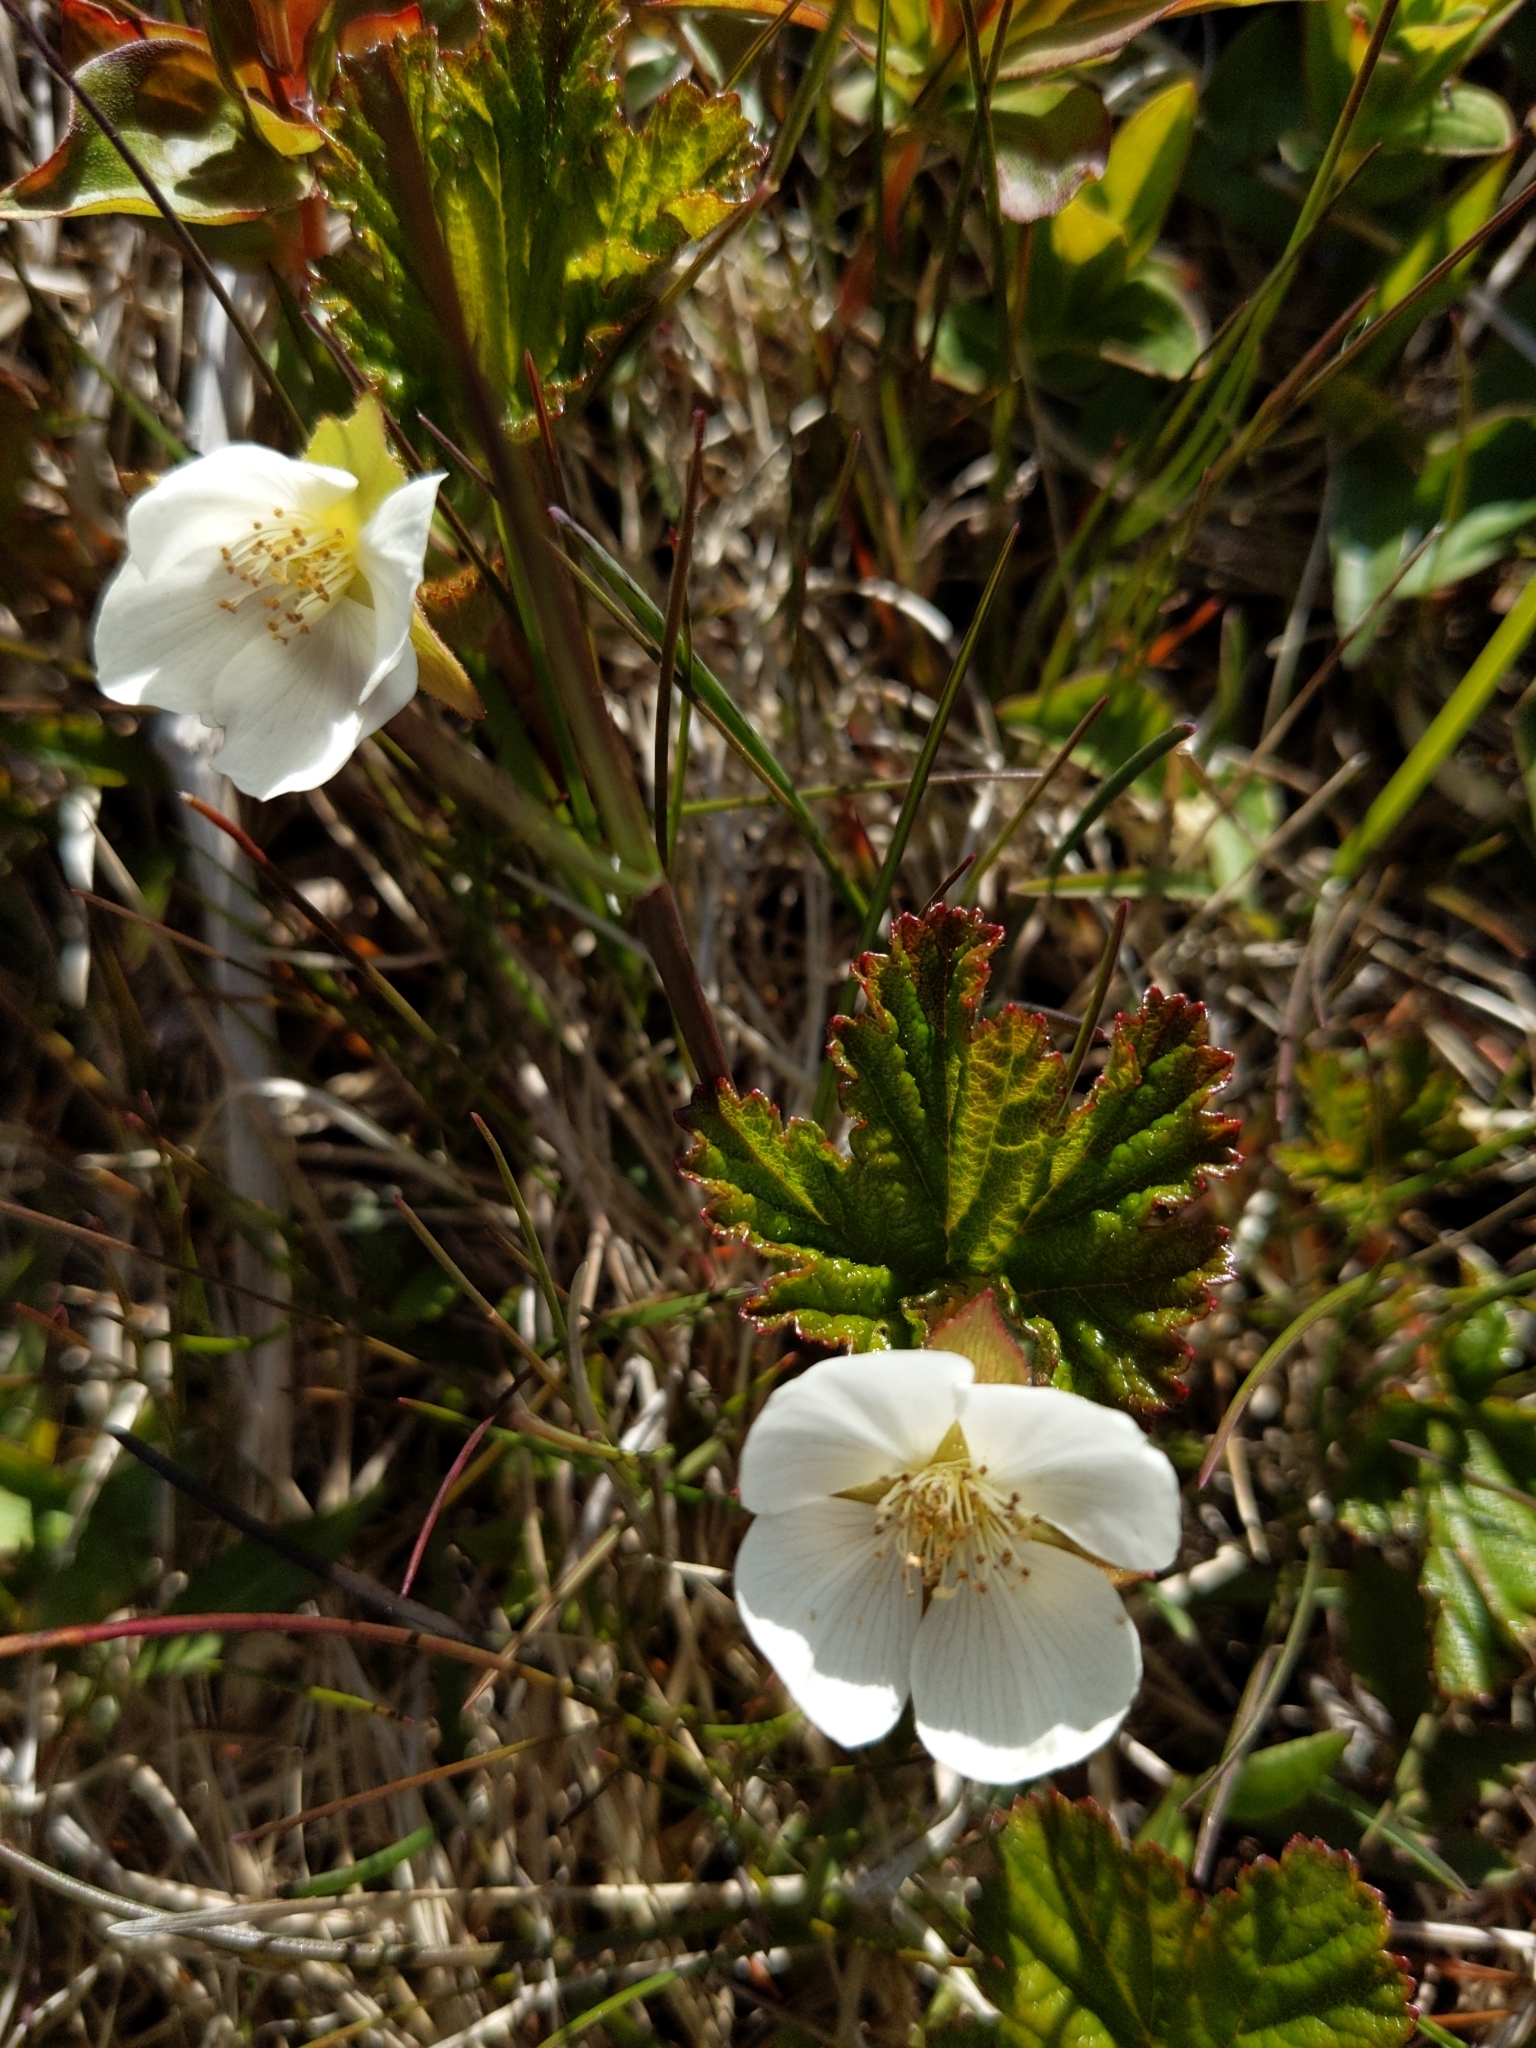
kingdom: Plantae
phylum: Tracheophyta
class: Magnoliopsida
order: Rosales
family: Rosaceae
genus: Rubus
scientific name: Rubus chamaemorus
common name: Cloudberry
